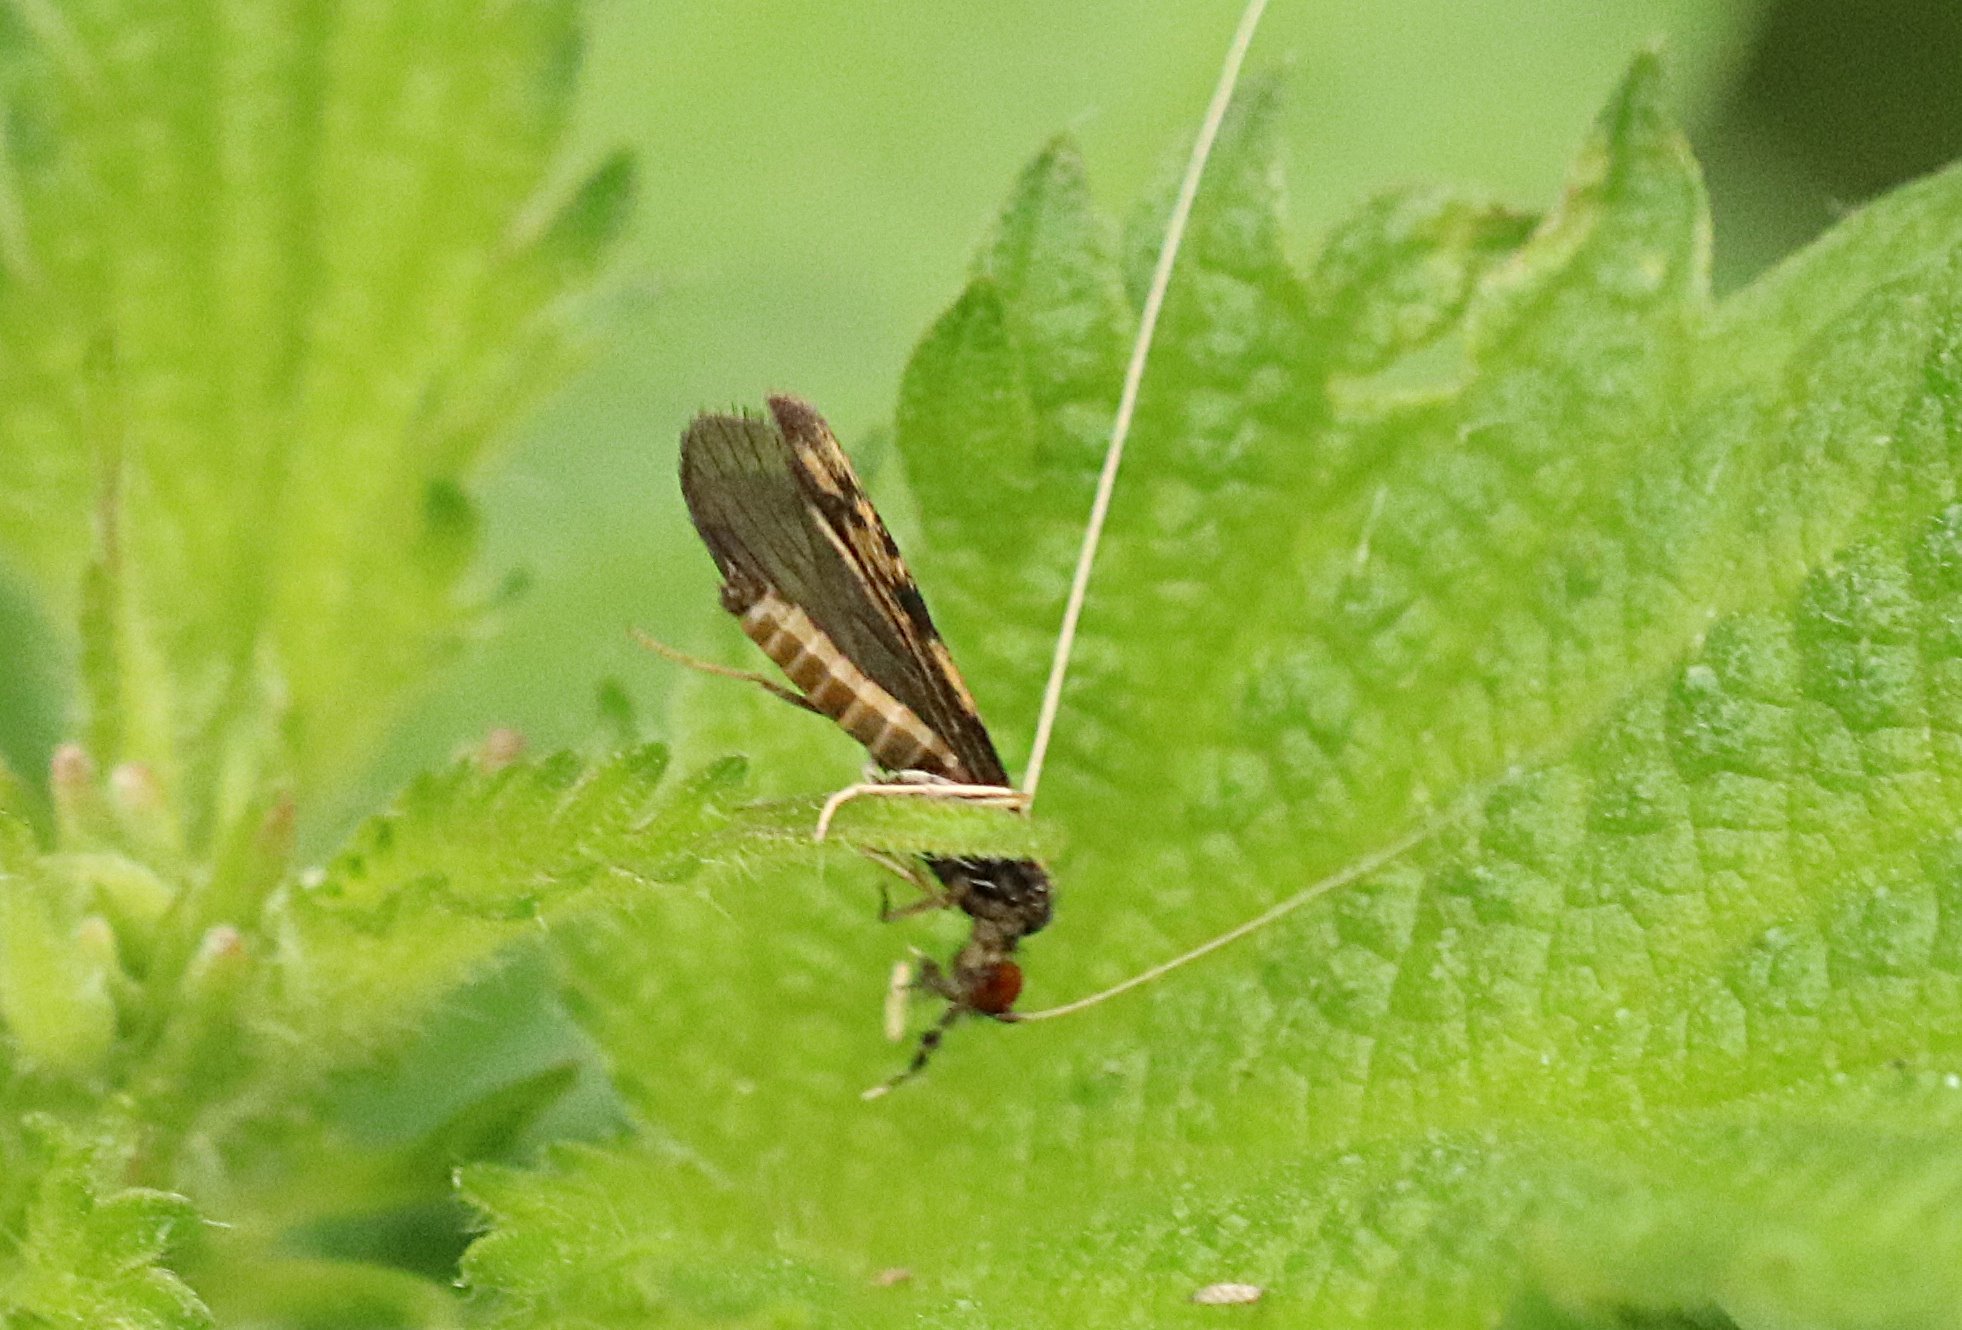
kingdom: Animalia
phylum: Arthropoda
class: Insecta
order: Trichoptera
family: Leptoceridae
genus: Mystacides
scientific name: Mystacides longicornis
